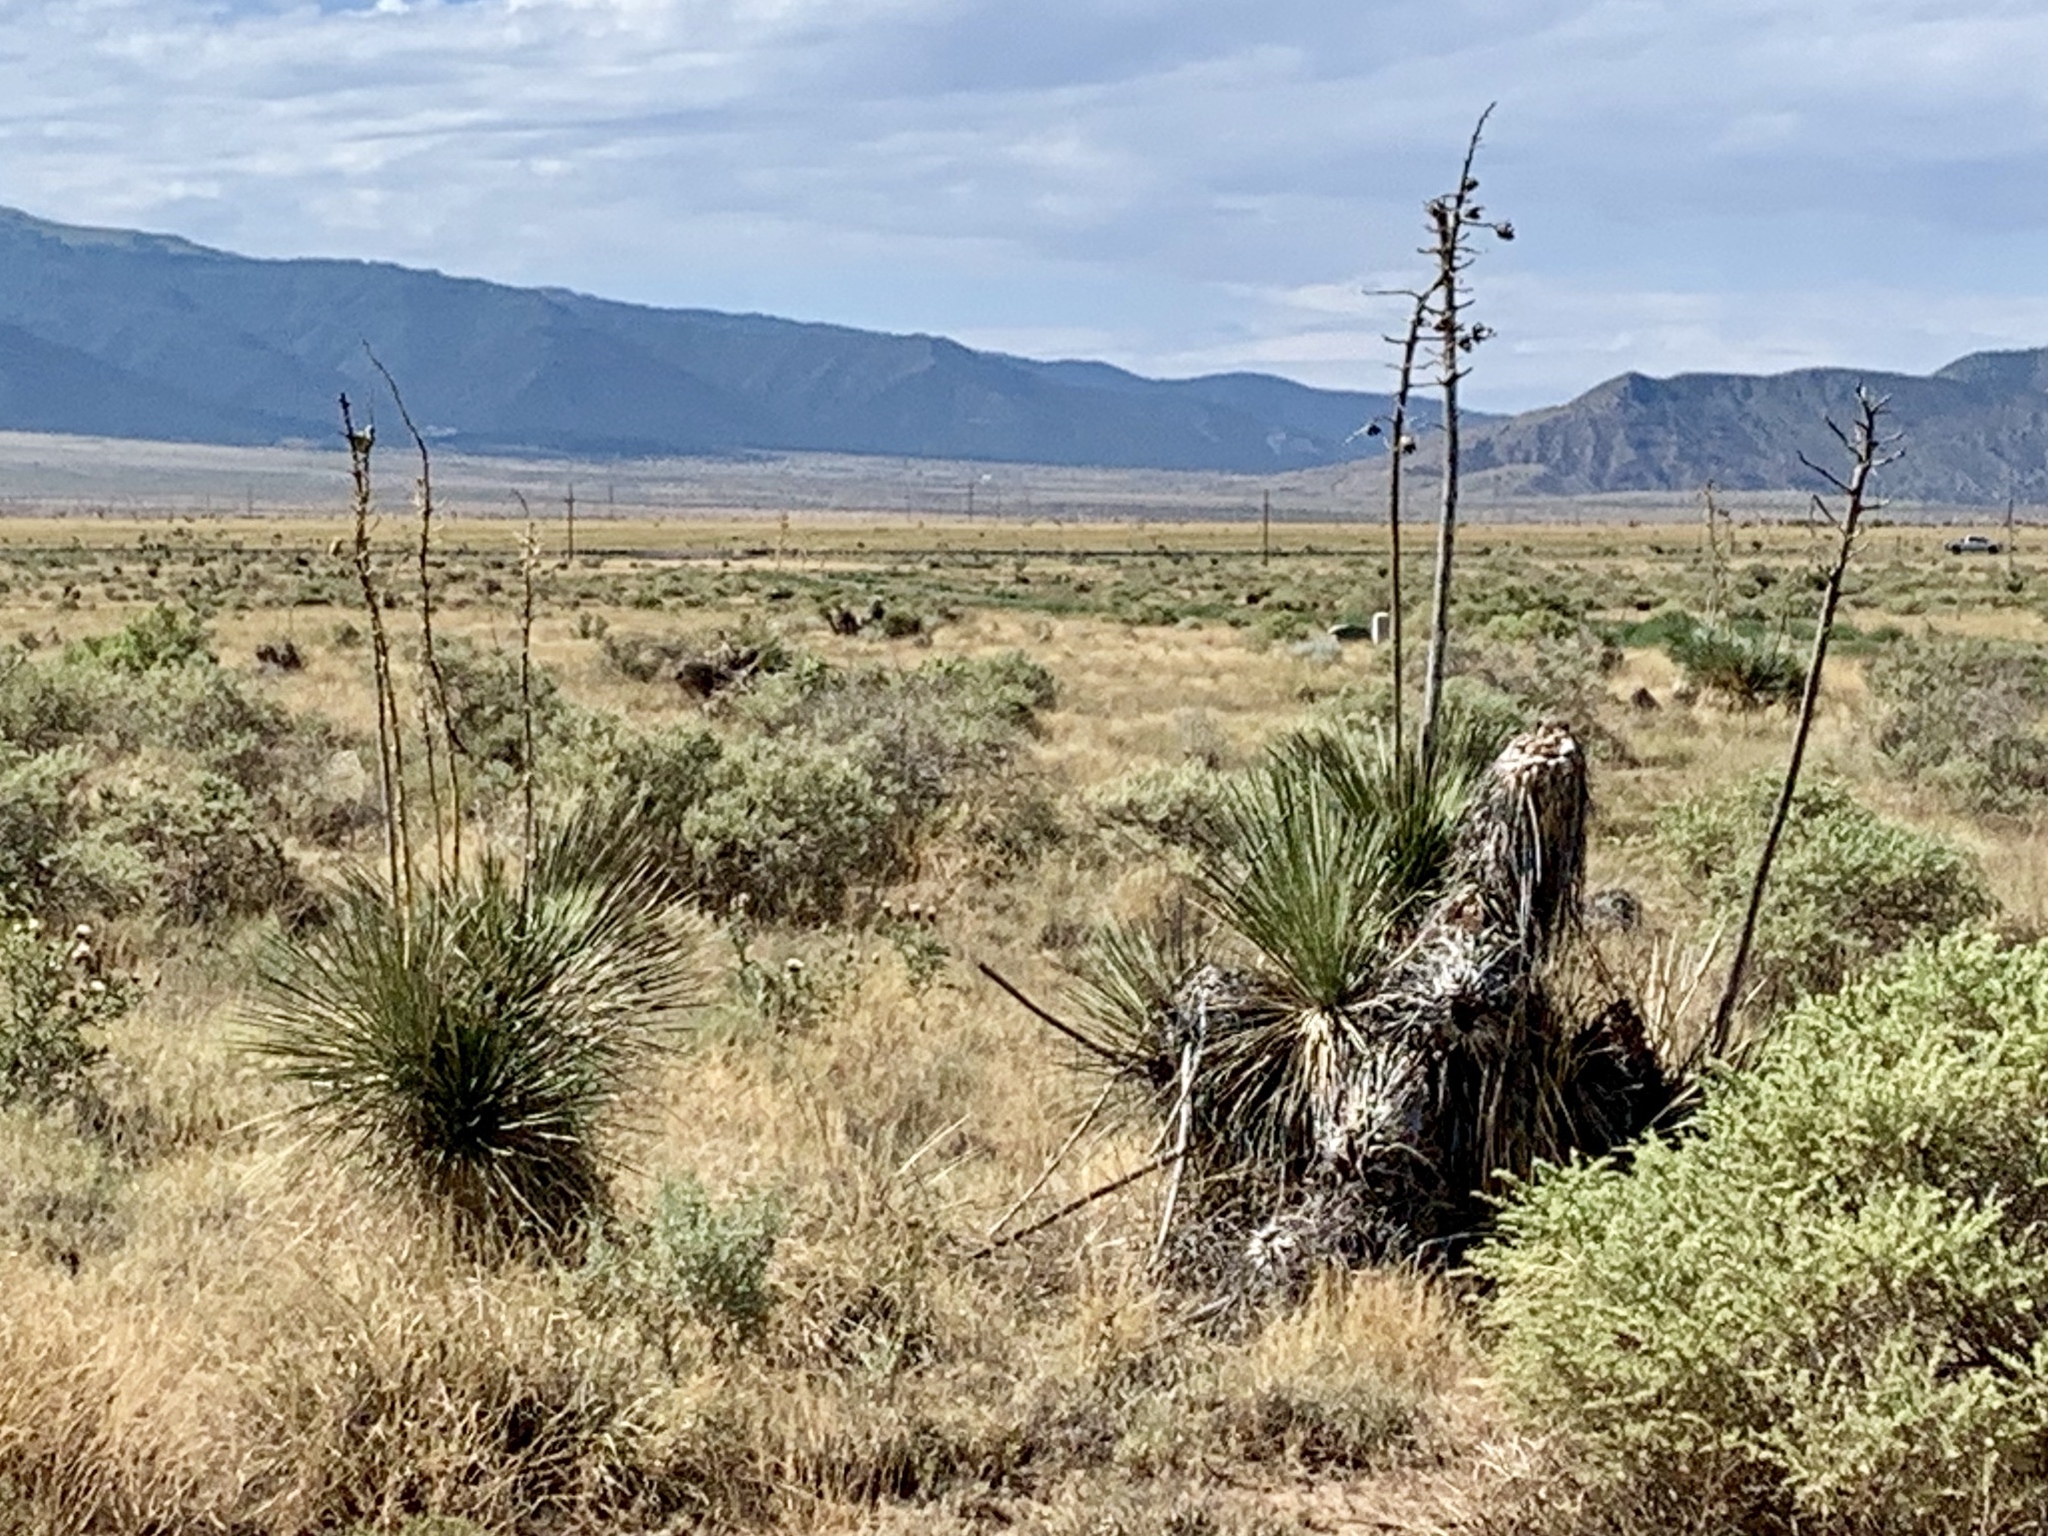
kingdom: Plantae
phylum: Tracheophyta
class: Liliopsida
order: Asparagales
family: Asparagaceae
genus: Yucca
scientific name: Yucca elata
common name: Palmella
